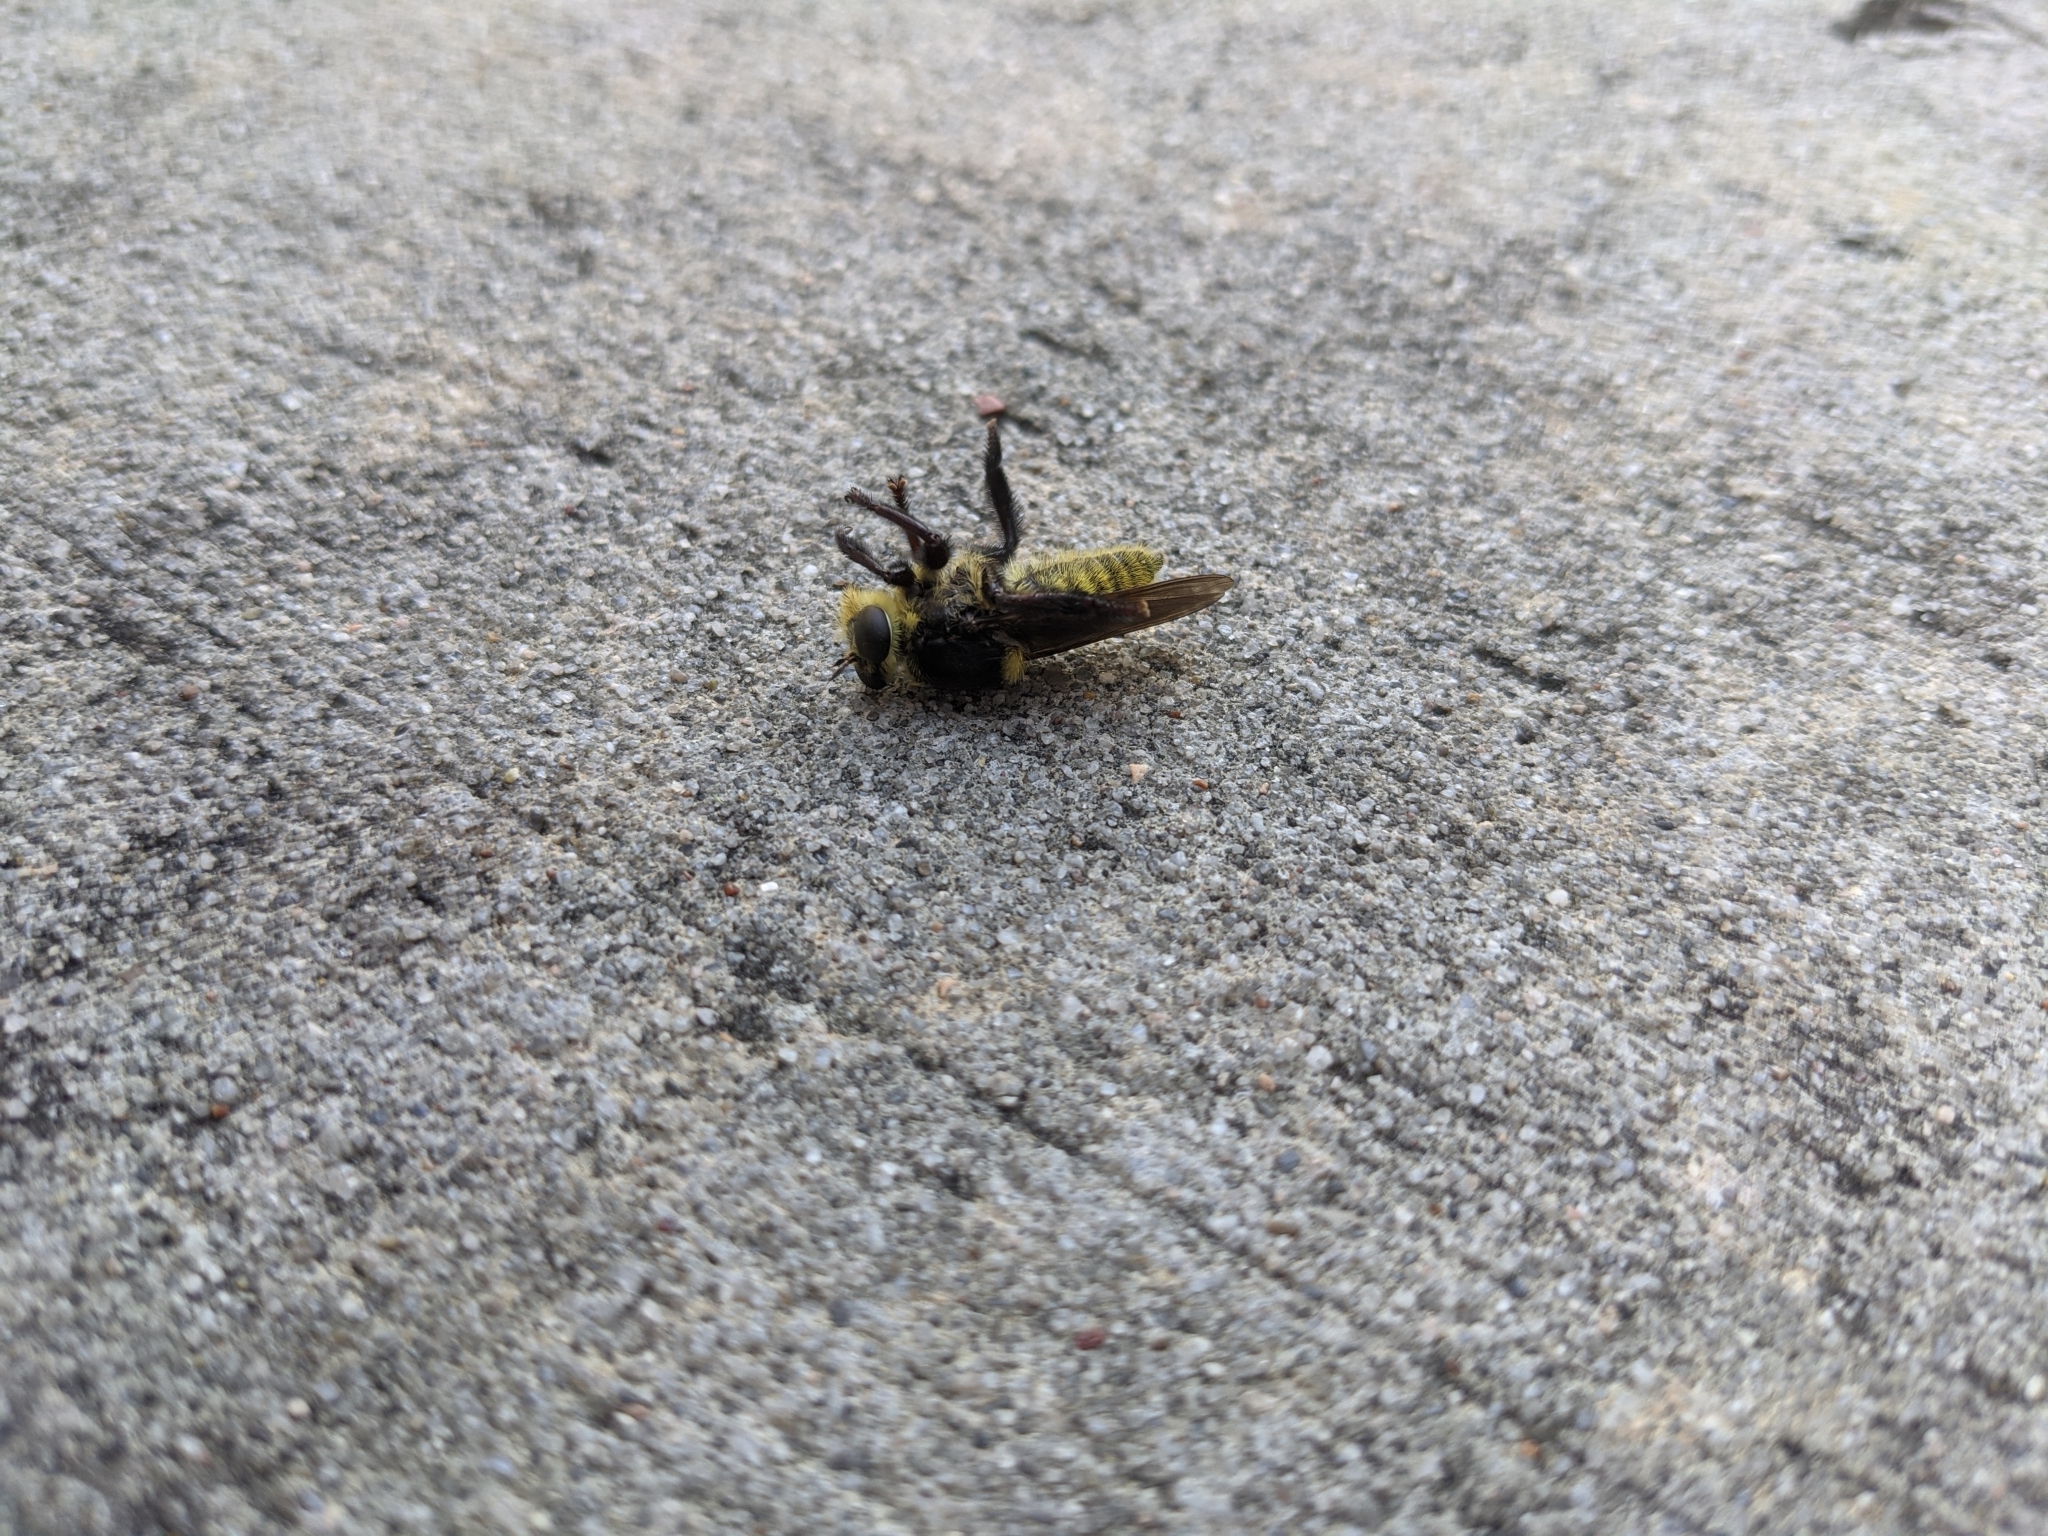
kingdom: Animalia
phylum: Arthropoda
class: Insecta
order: Diptera
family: Asilidae
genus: Mallophora
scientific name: Mallophora fautrix
